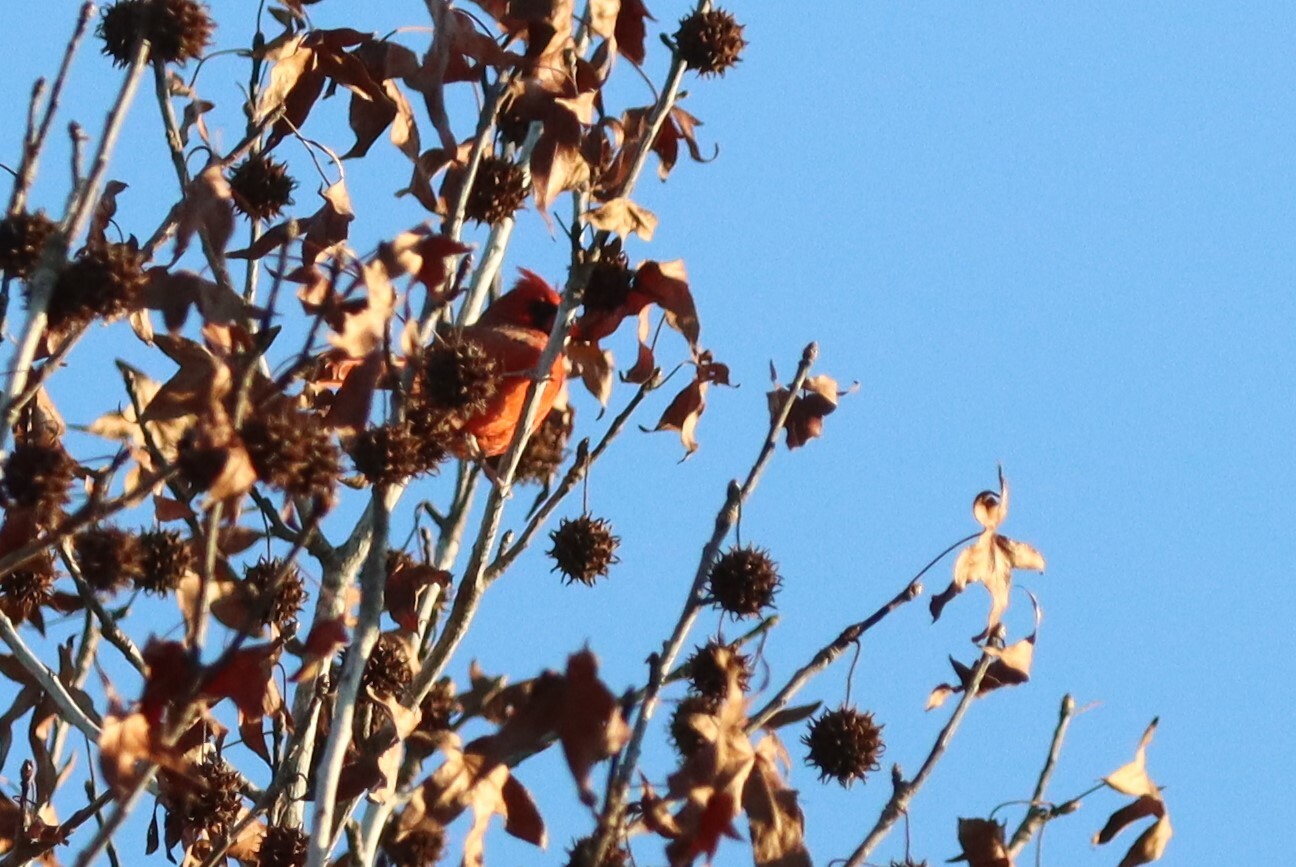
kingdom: Animalia
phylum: Chordata
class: Aves
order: Passeriformes
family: Cardinalidae
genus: Cardinalis
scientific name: Cardinalis cardinalis
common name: Northern cardinal
